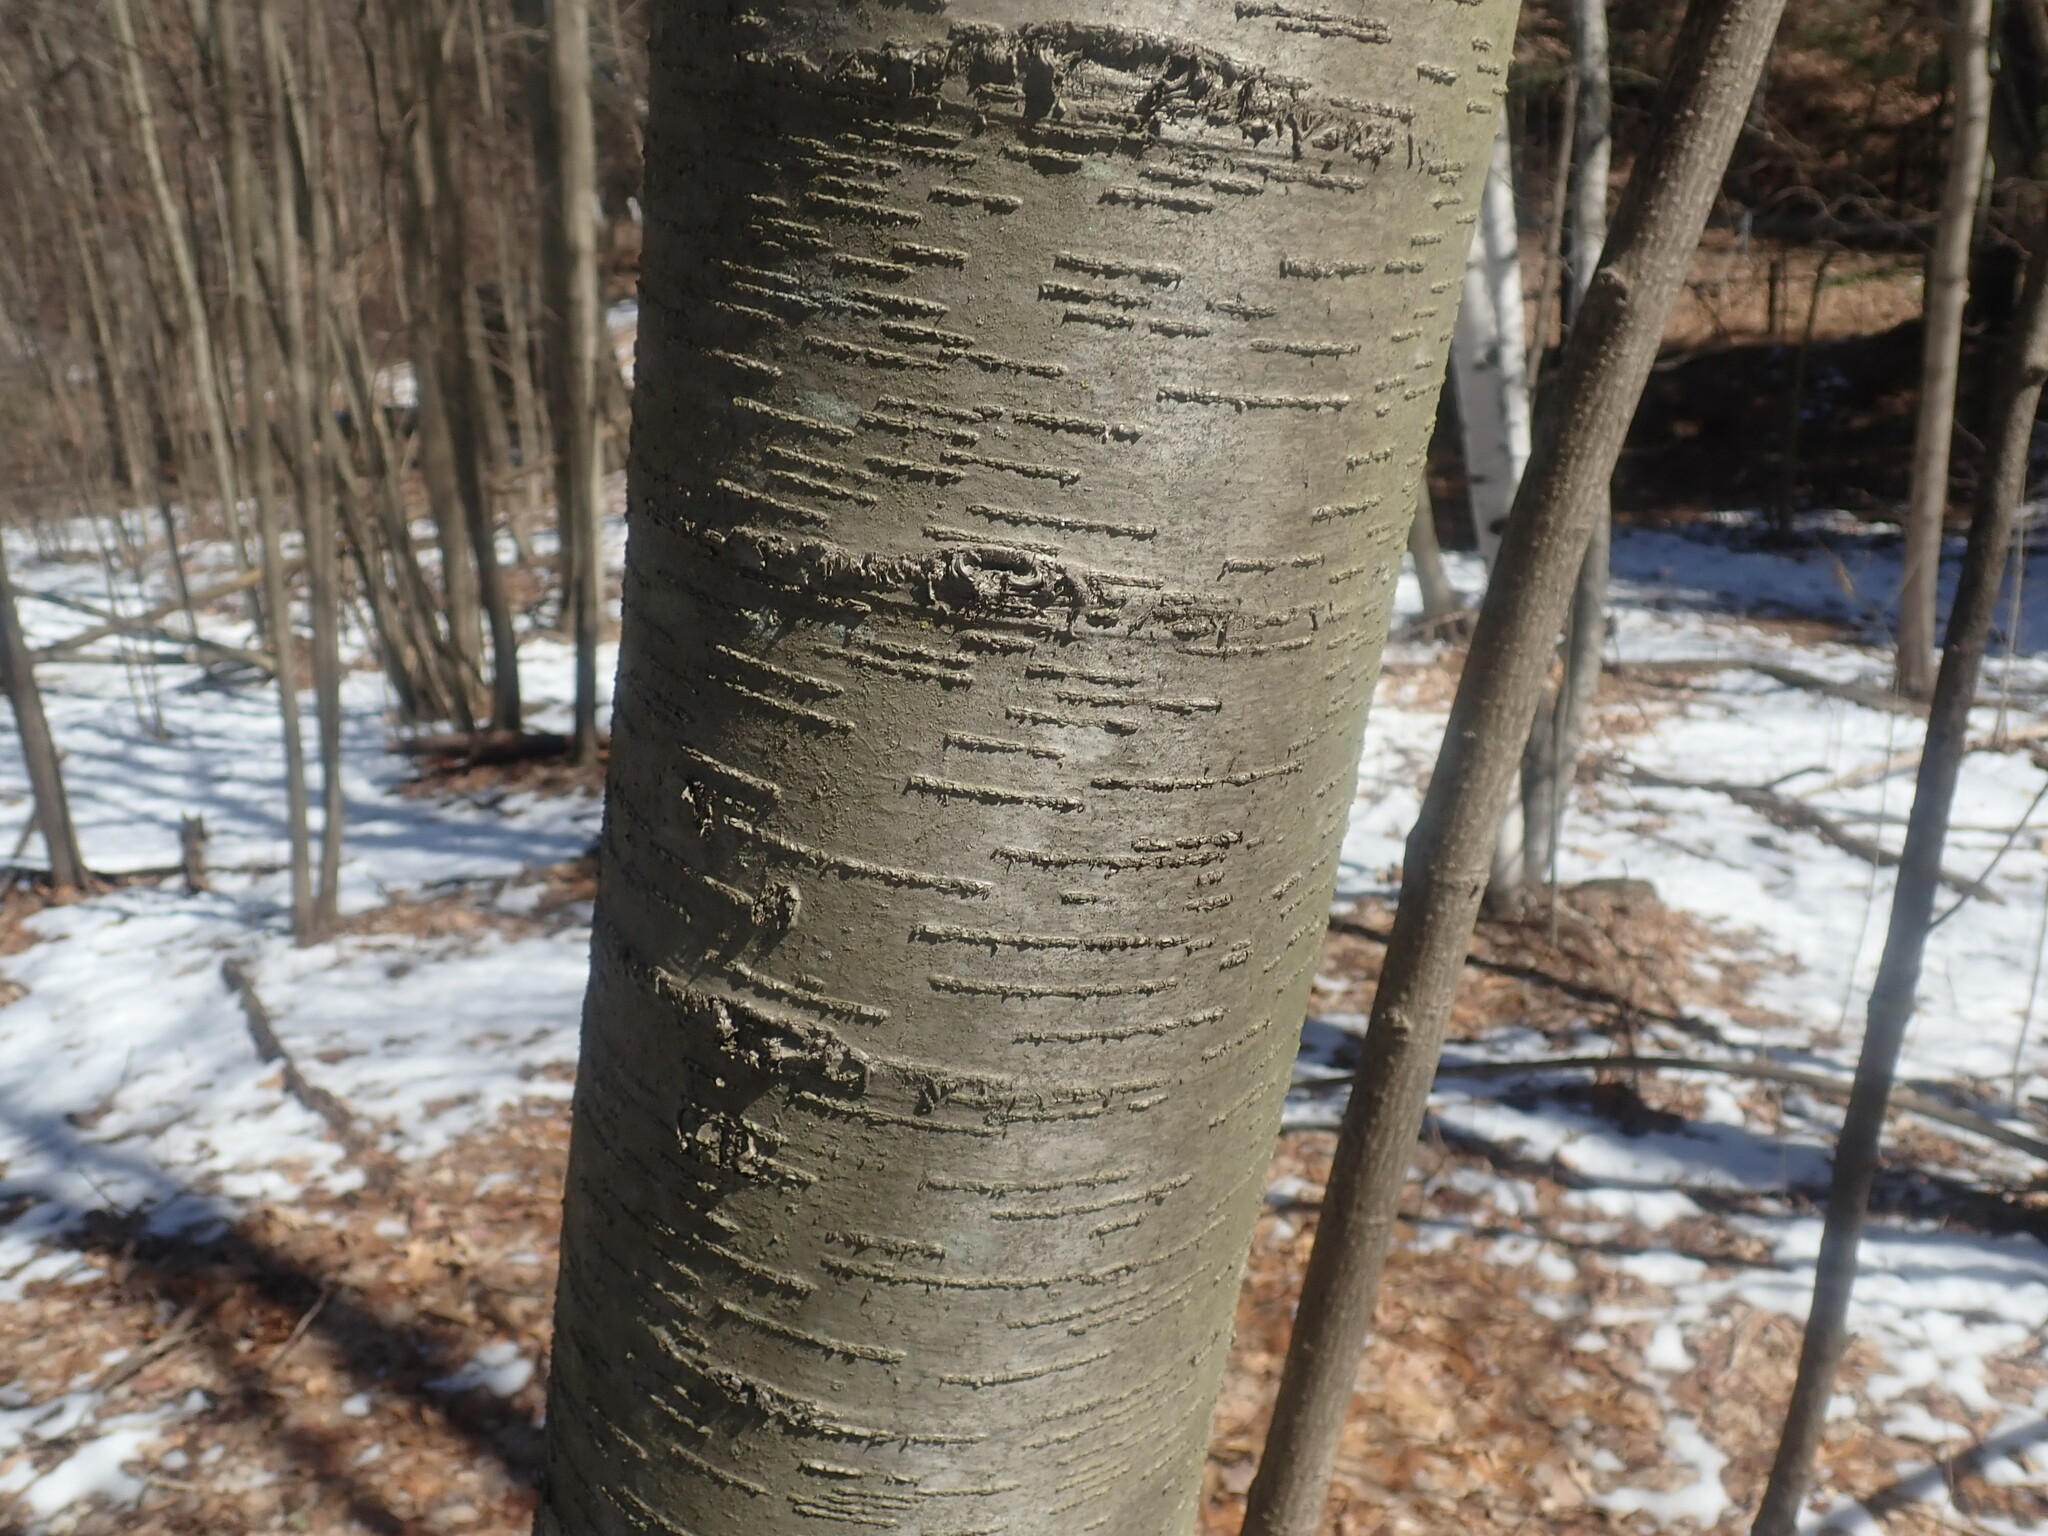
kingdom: Plantae
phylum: Tracheophyta
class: Magnoliopsida
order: Fagales
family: Betulaceae
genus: Betula
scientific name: Betula lenta
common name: Black birch
